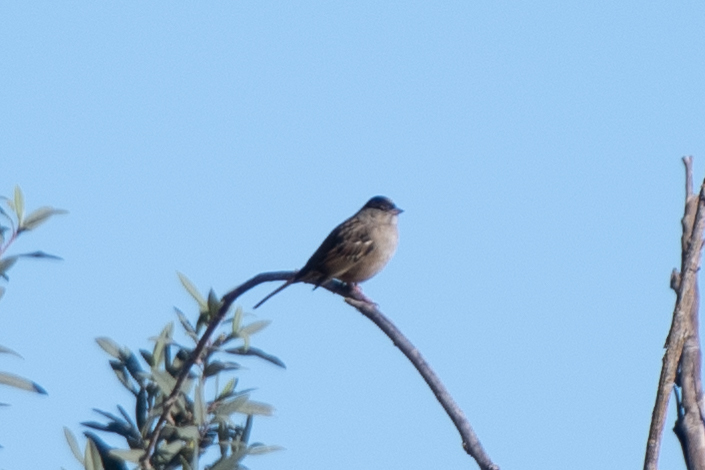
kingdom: Animalia
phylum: Chordata
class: Aves
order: Passeriformes
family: Passerellidae
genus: Zonotrichia
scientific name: Zonotrichia atricapilla
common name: Golden-crowned sparrow
